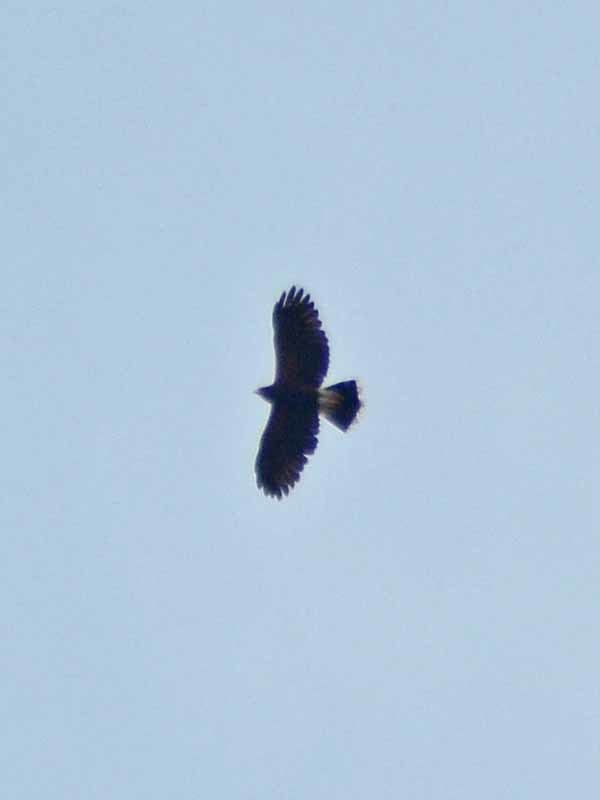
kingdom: Animalia
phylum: Chordata
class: Aves
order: Accipitriformes
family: Accipitridae
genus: Parabuteo
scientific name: Parabuteo unicinctus
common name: Harris's hawk
